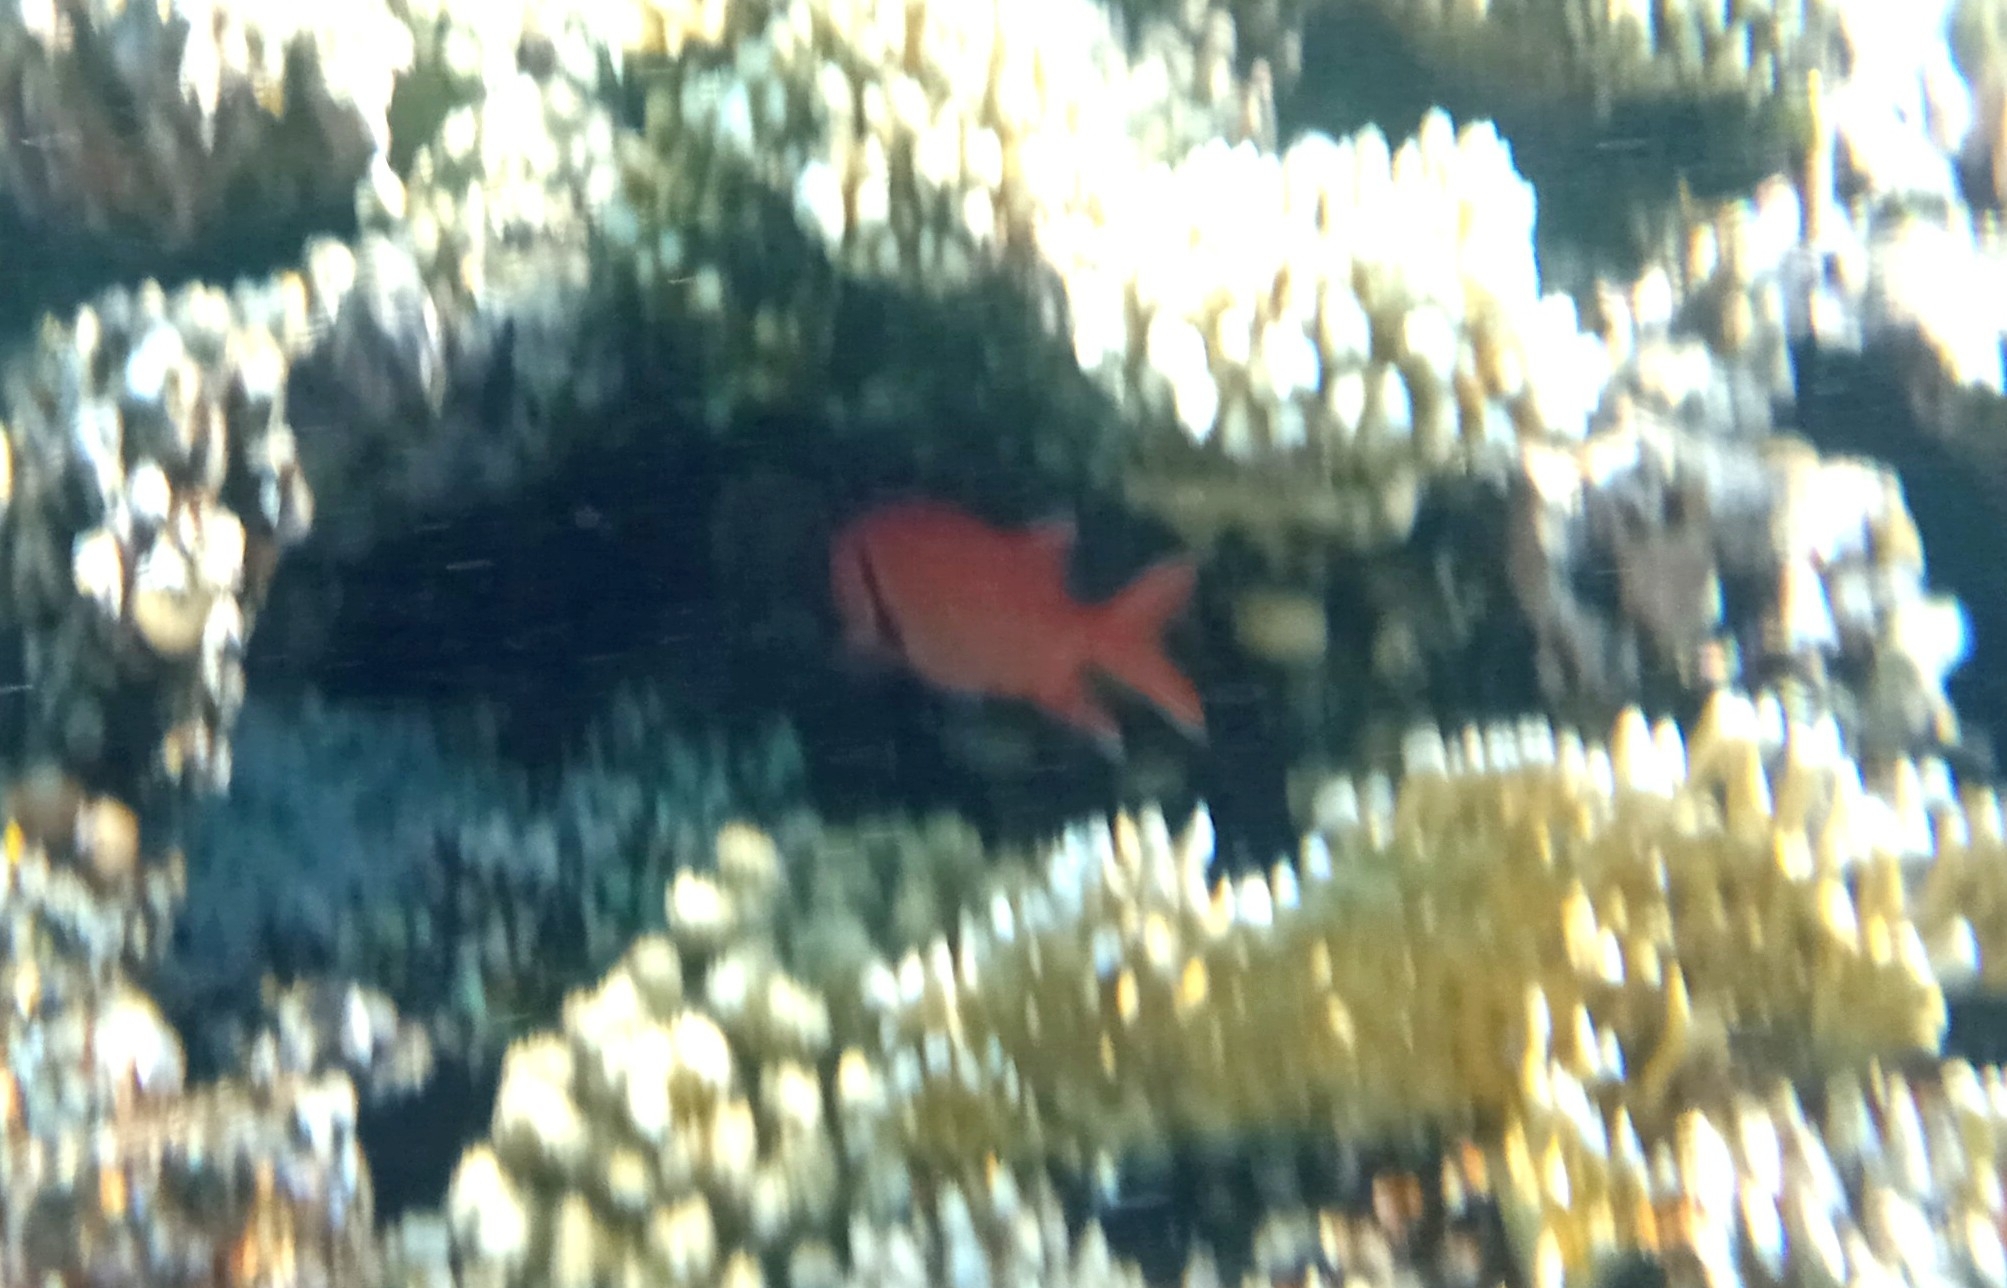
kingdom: Animalia
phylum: Chordata
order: Beryciformes
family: Holocentridae
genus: Myripristis
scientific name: Myripristis murdjan
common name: Big-eye soldierfish
